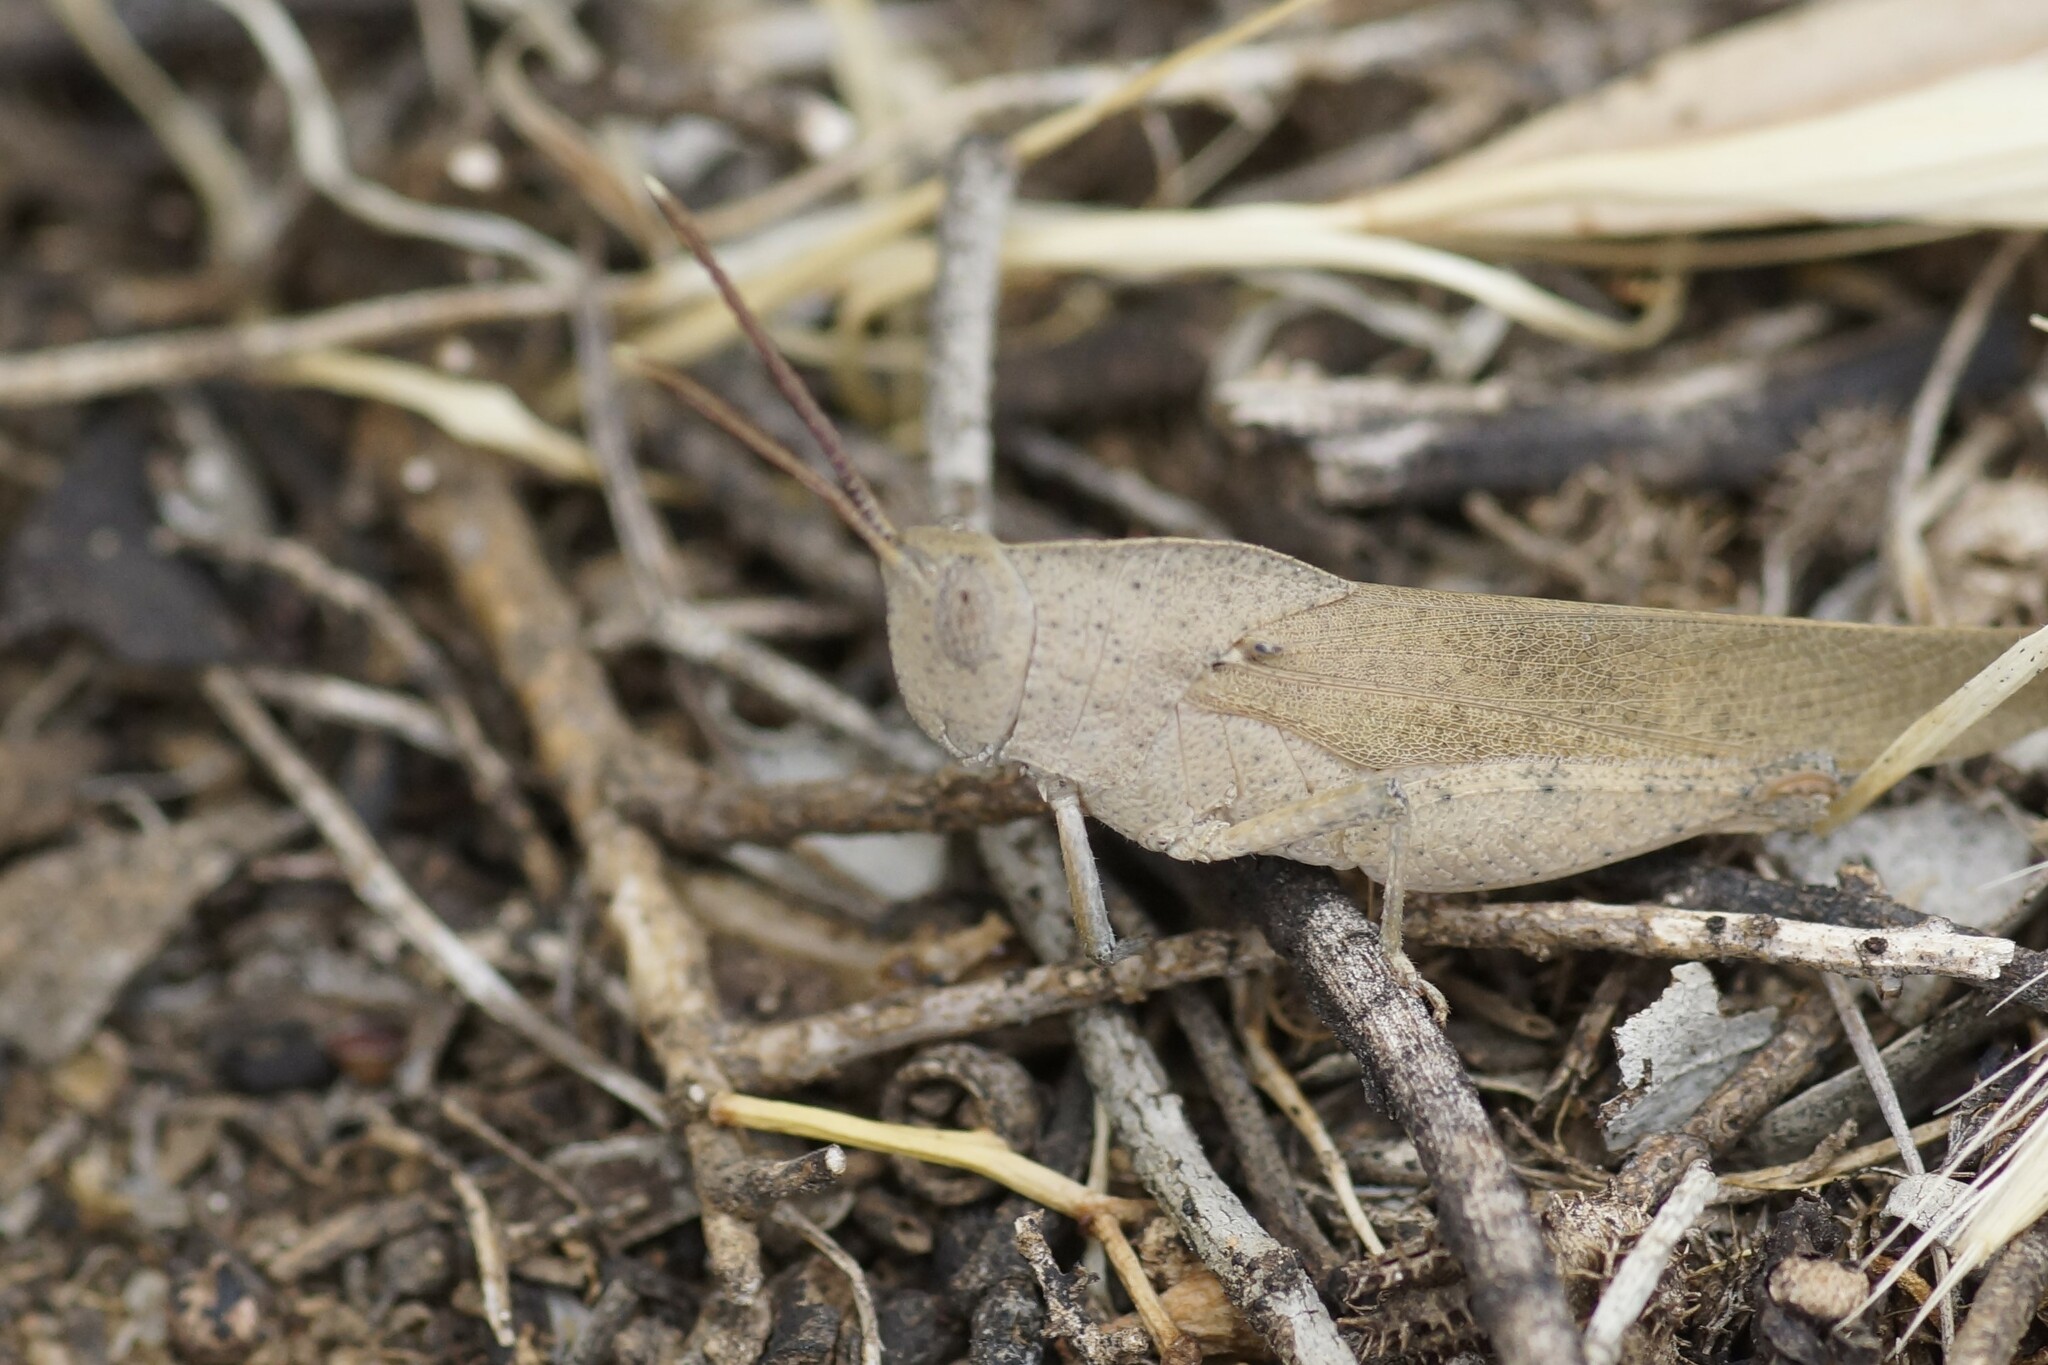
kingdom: Animalia
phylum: Arthropoda
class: Insecta
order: Orthoptera
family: Acrididae
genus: Goniaea
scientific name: Goniaea australasiae
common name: Gumleaf grasshopper
